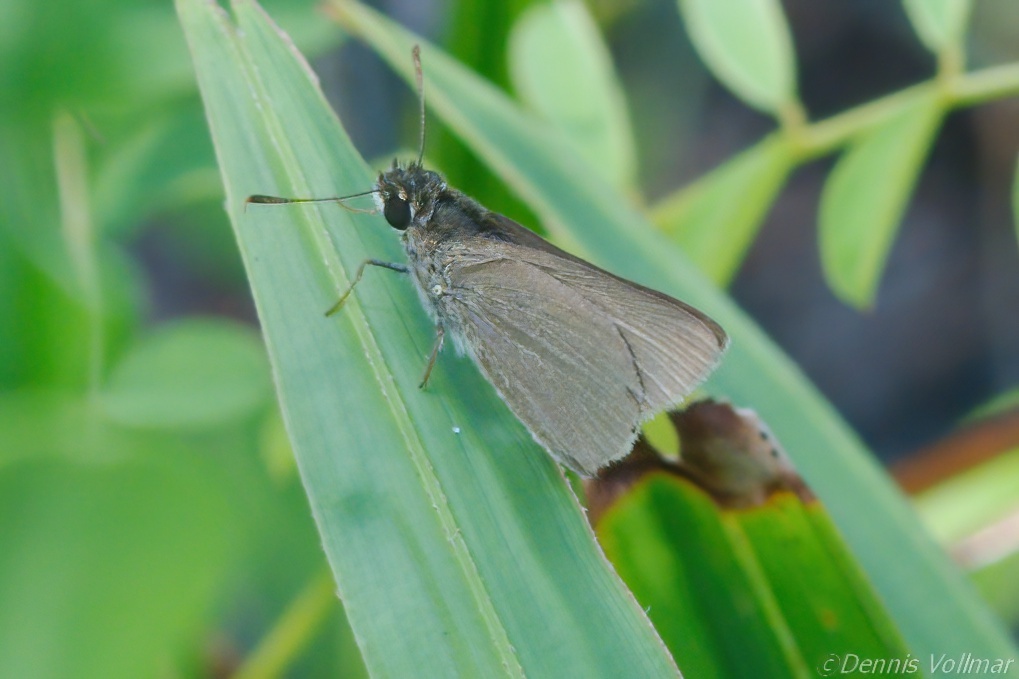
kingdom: Animalia
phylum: Arthropoda
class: Insecta
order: Lepidoptera
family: Hesperiidae
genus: Nastra
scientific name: Nastra lherminier
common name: Swarthy skipper
